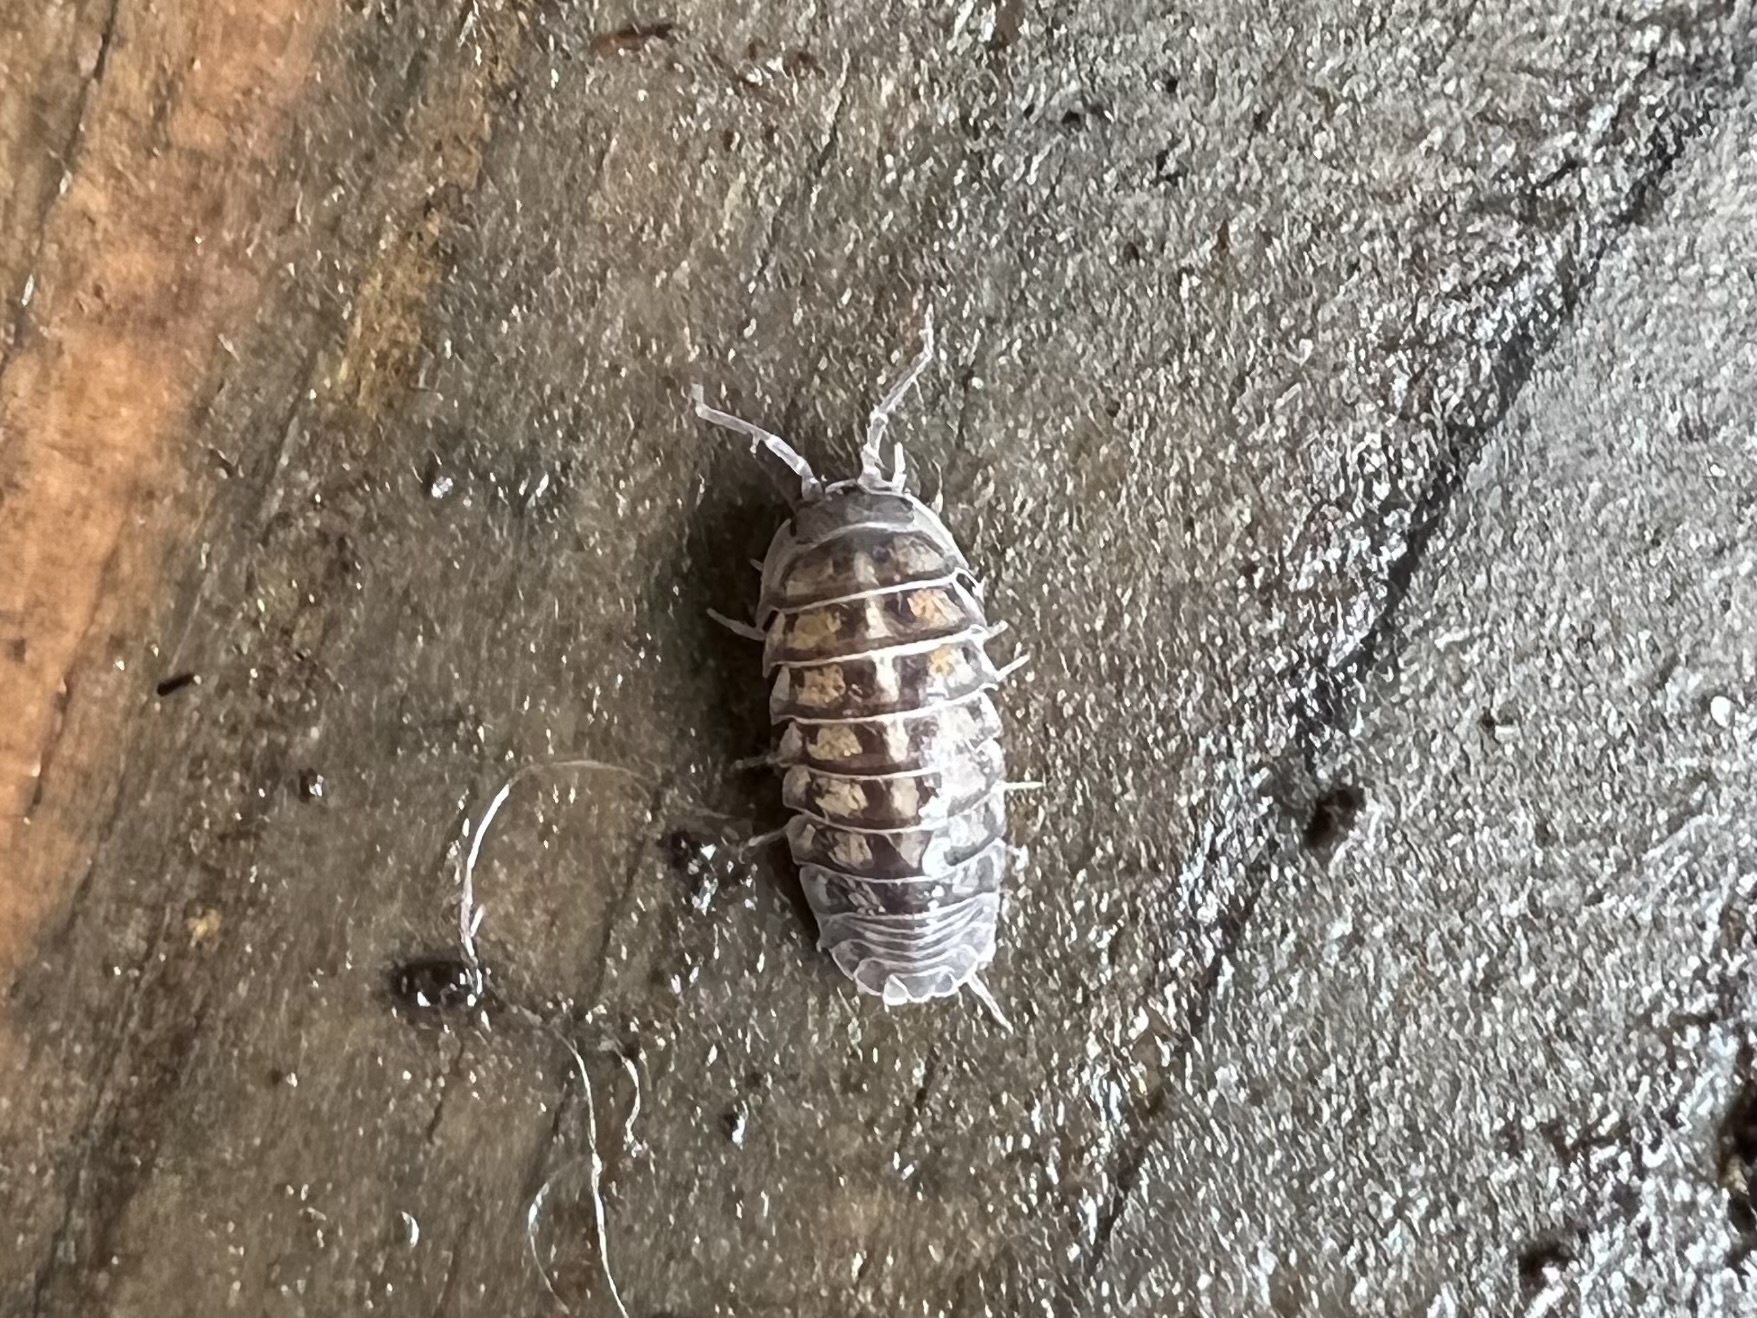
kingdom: Animalia
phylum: Arthropoda
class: Malacostraca
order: Isopoda
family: Armadillidiidae
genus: Armadillidium
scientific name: Armadillidium nasatum
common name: Isopod
